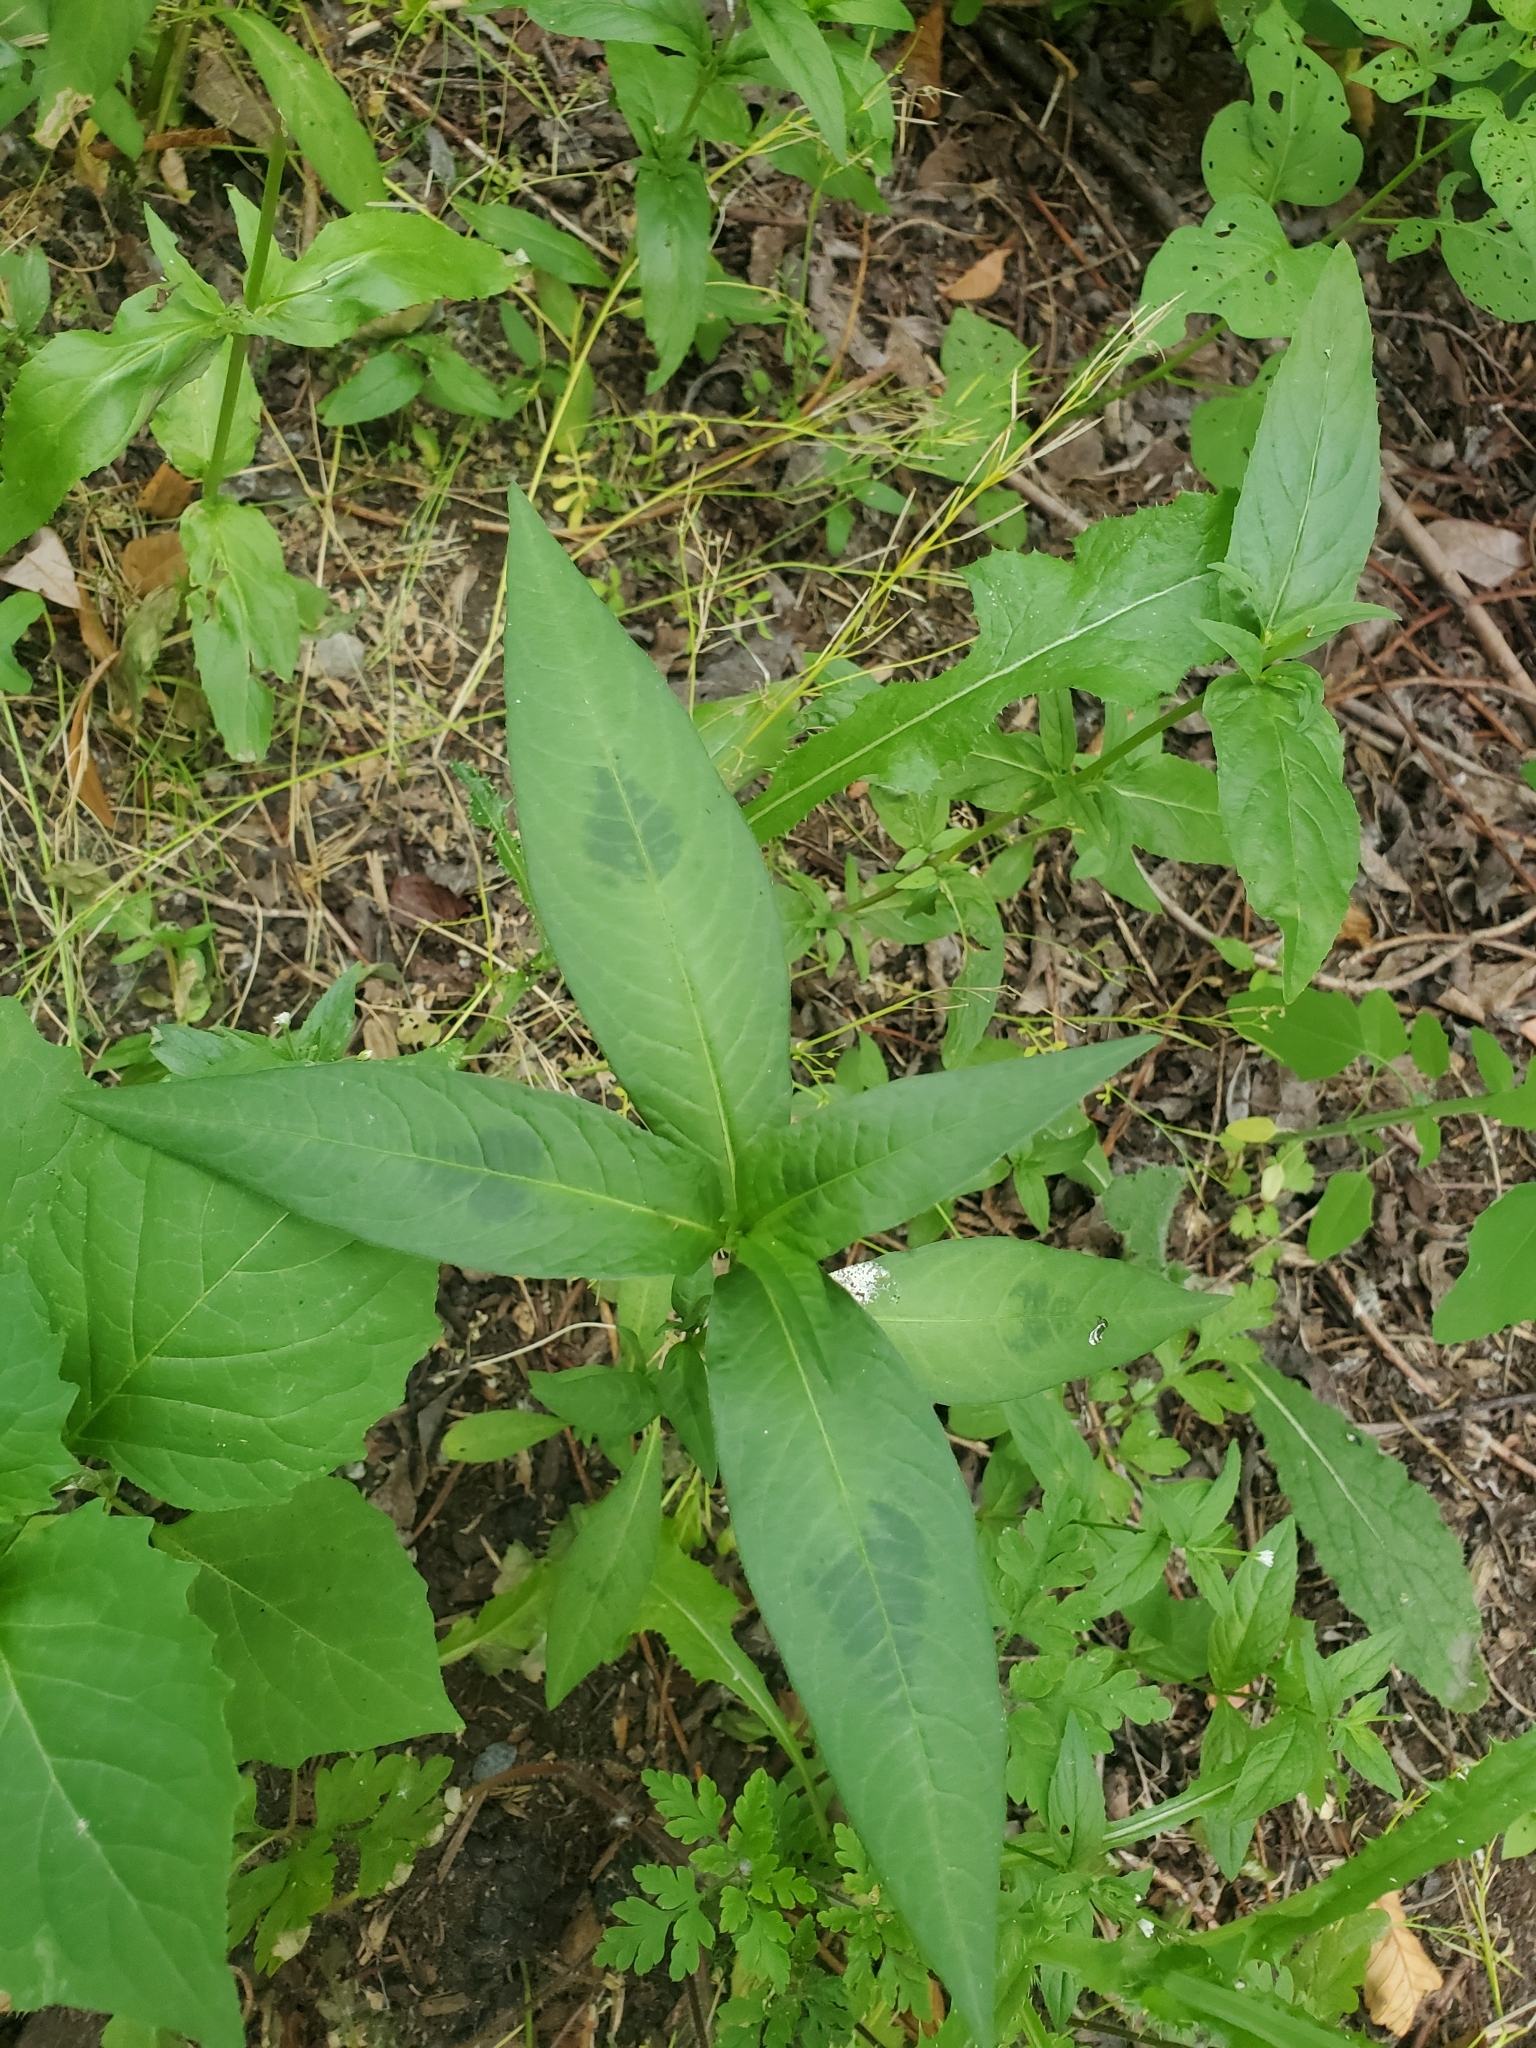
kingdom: Plantae
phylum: Tracheophyta
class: Magnoliopsida
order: Caryophyllales
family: Polygonaceae
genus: Persicaria
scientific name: Persicaria maculosa
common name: Redshank
